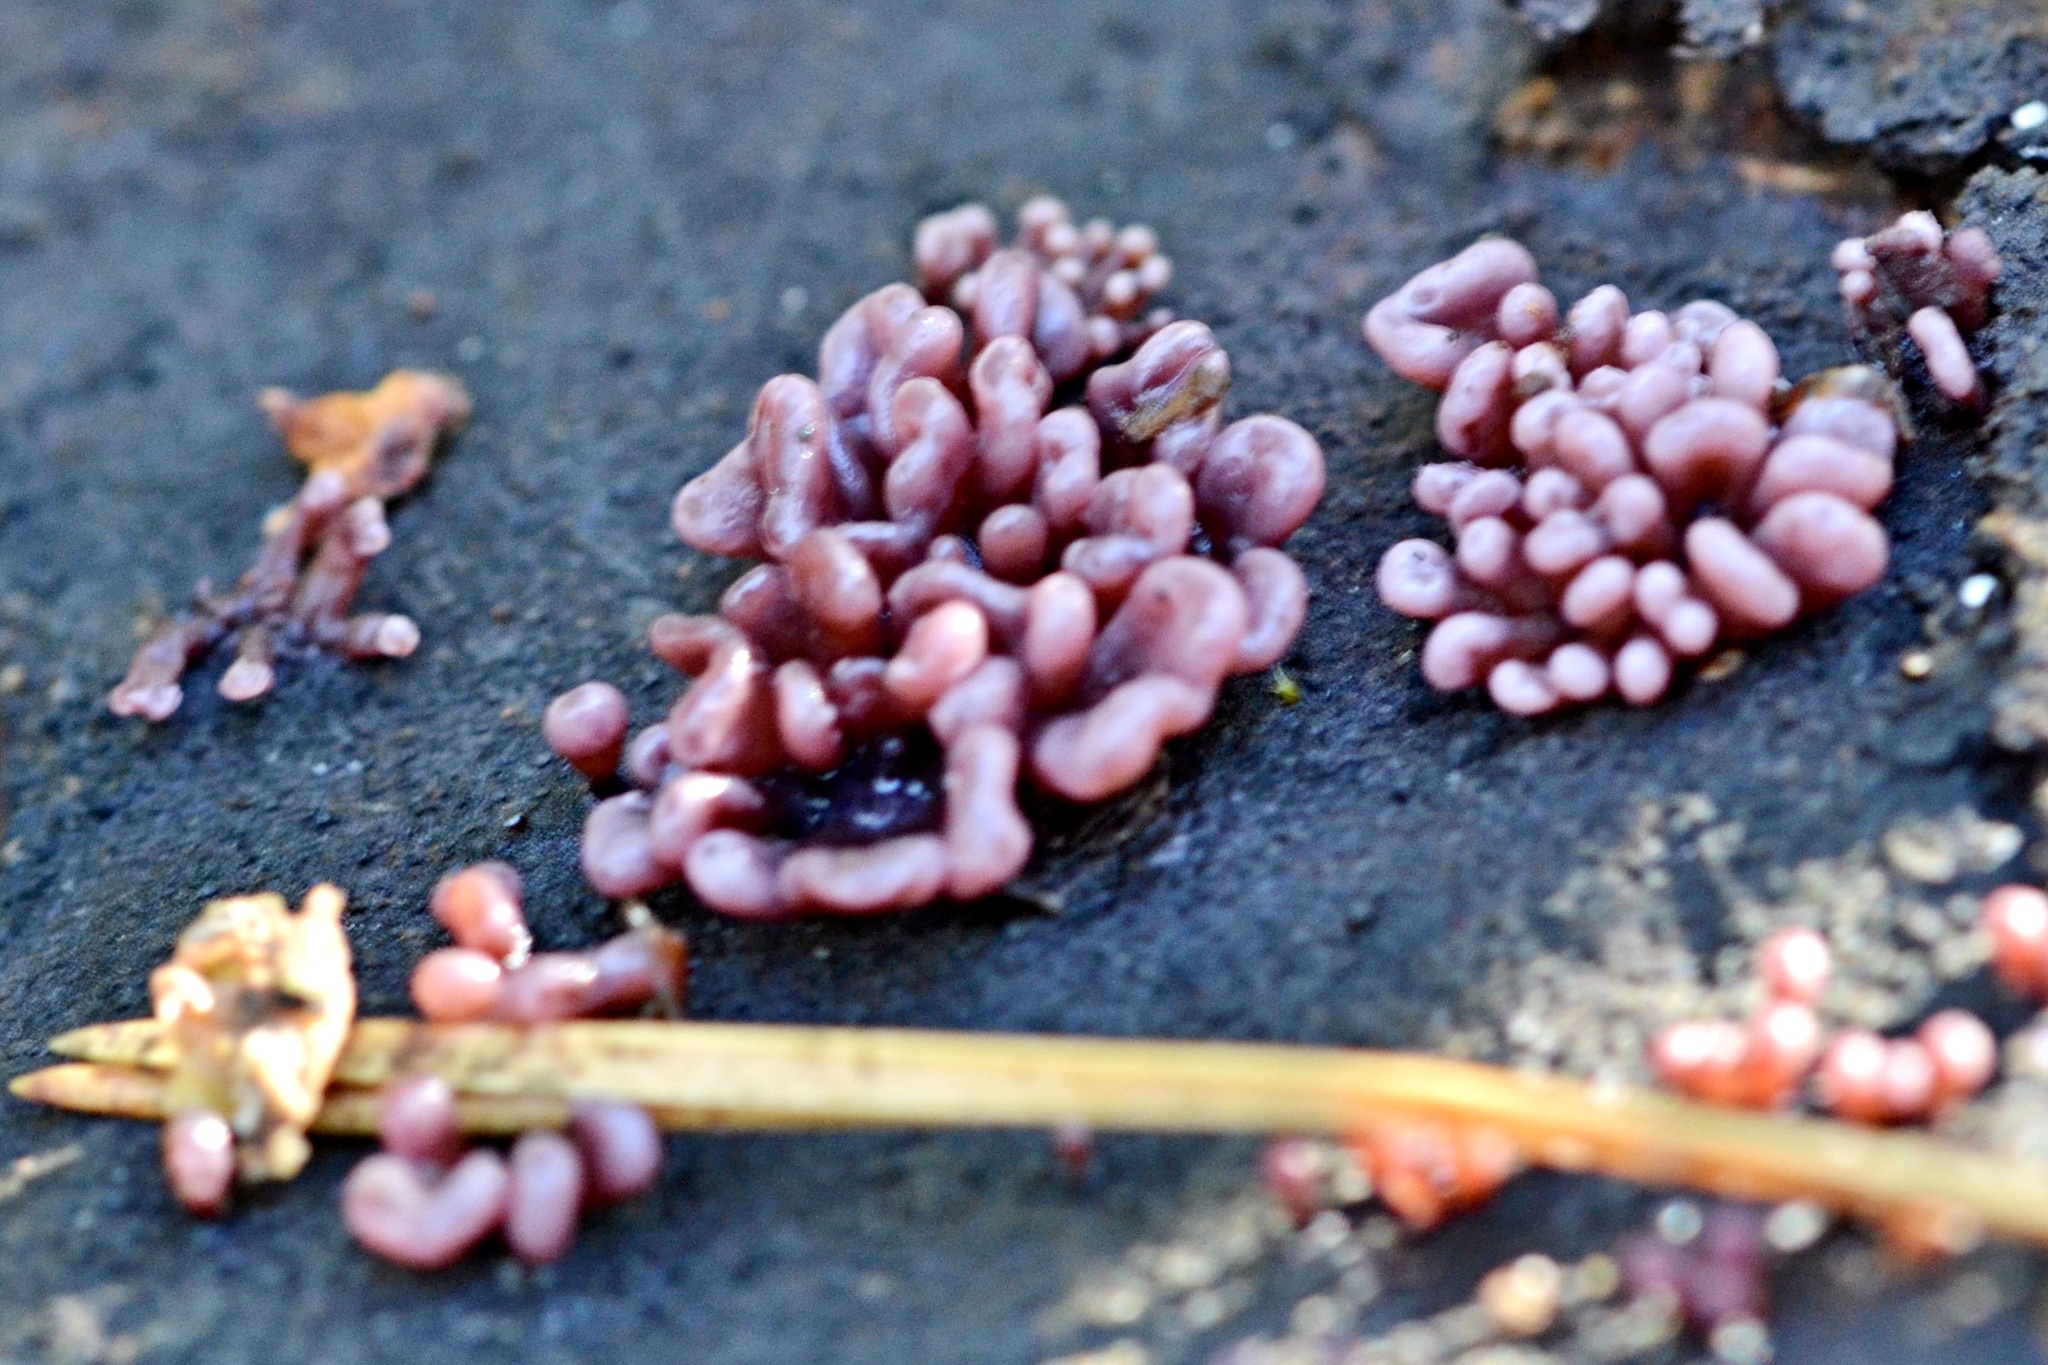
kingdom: Fungi
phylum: Ascomycota
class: Leotiomycetes
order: Helotiales
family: Gelatinodiscaceae
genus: Ascocoryne
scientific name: Ascocoryne sarcoides
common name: Purple jellydisc
